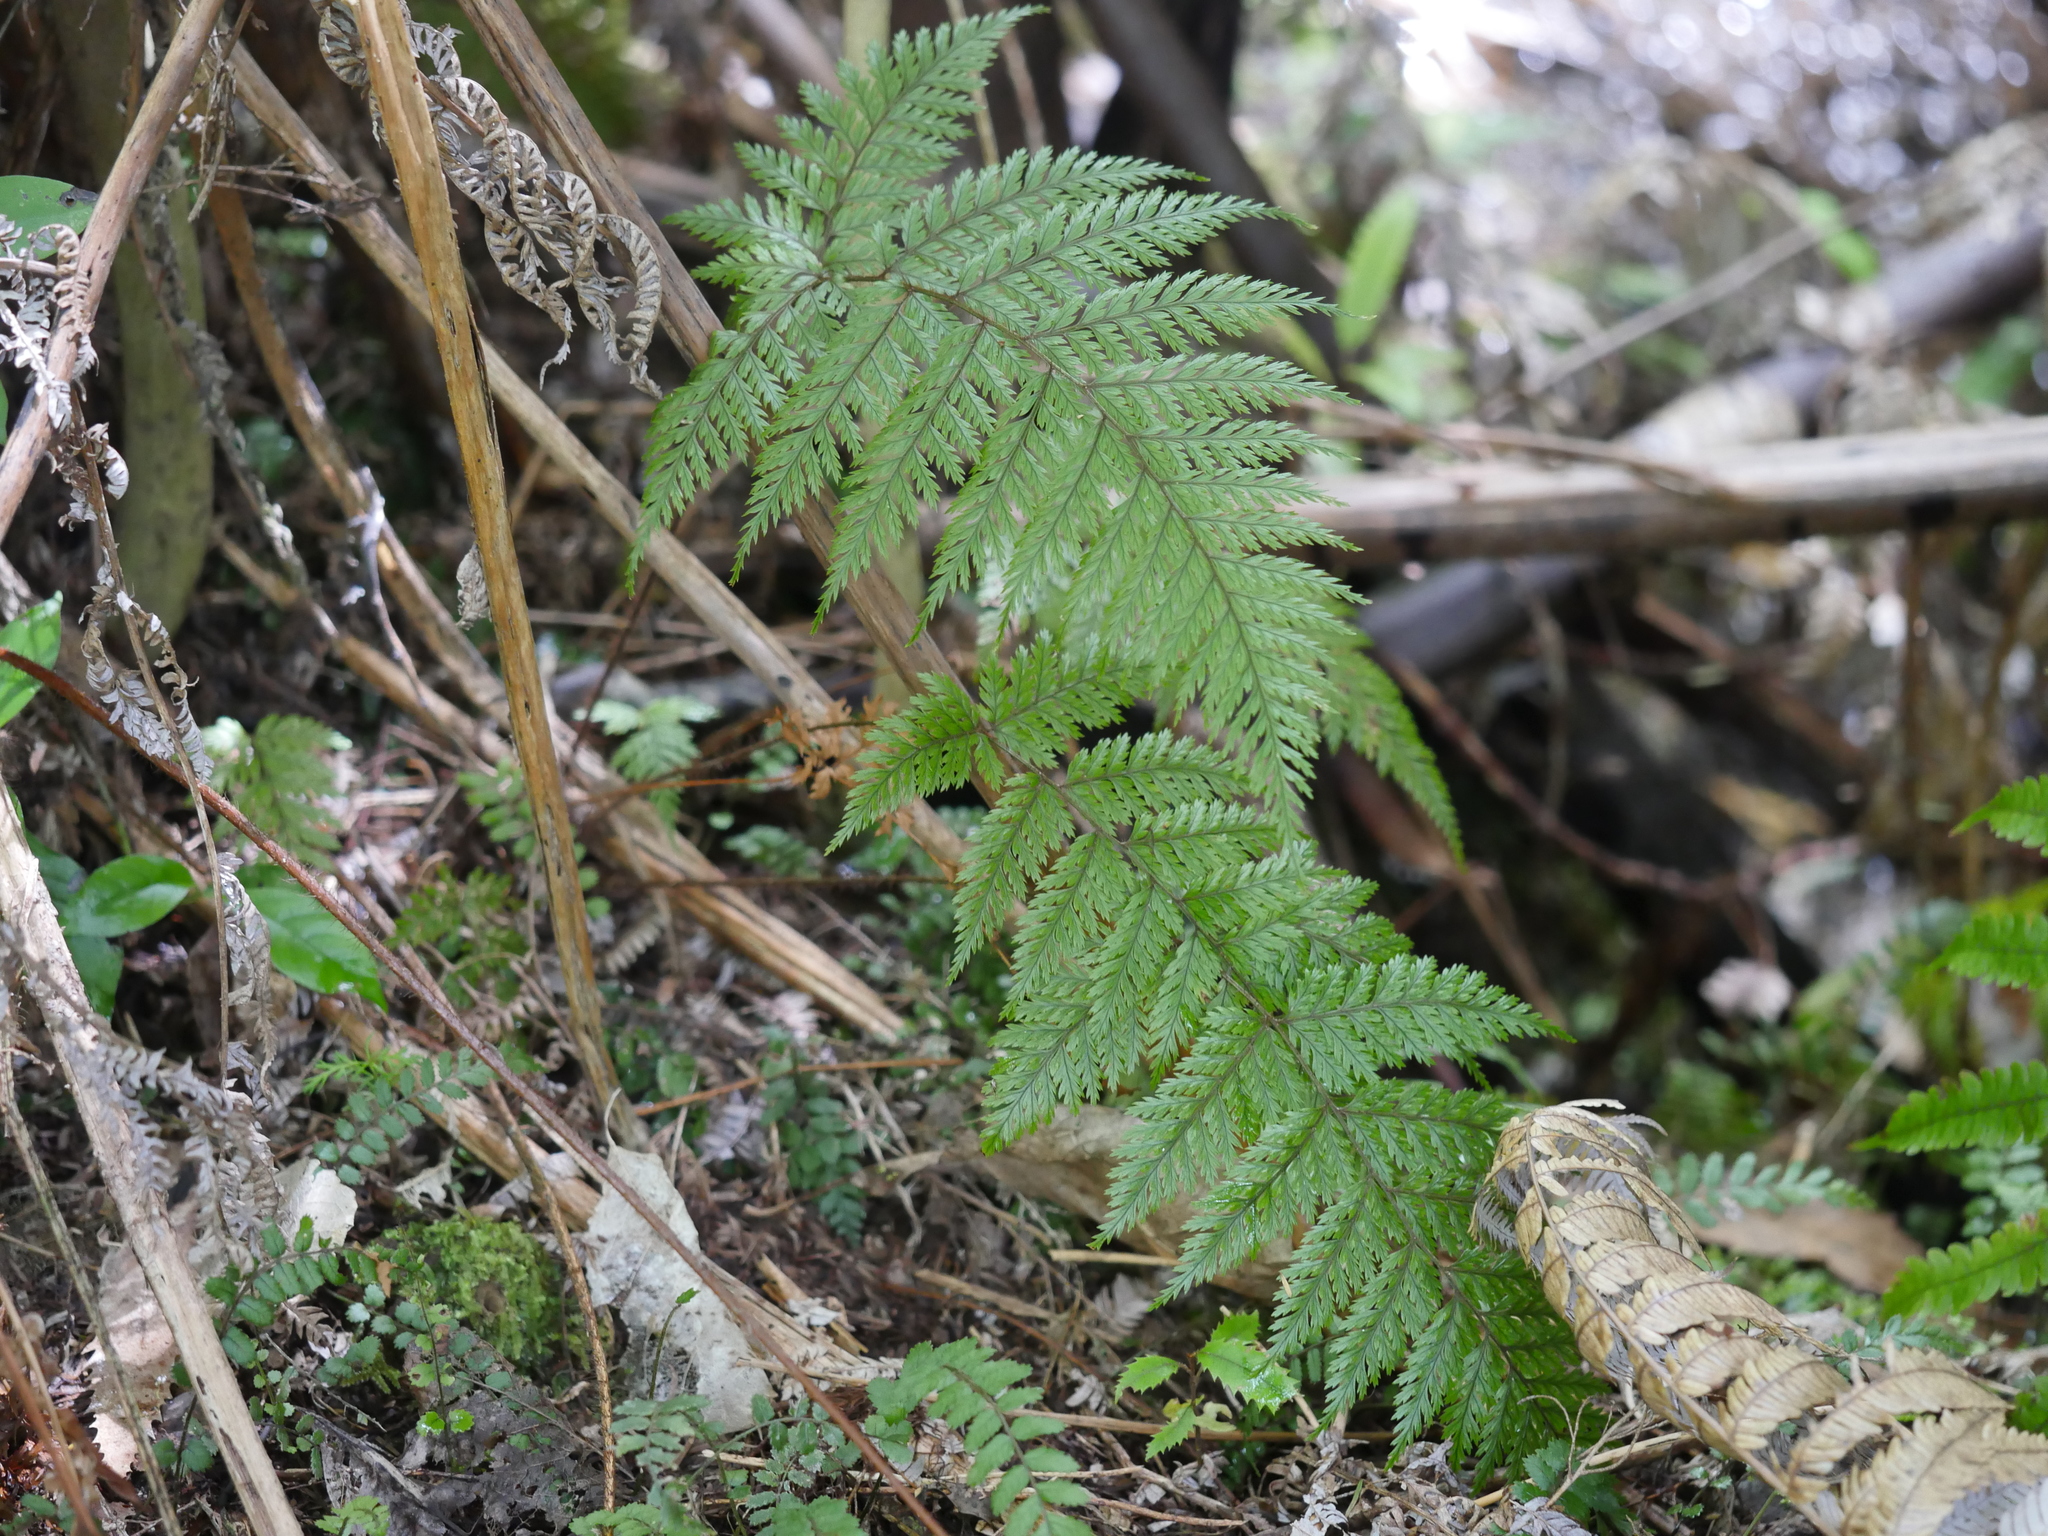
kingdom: Plantae
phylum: Tracheophyta
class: Polypodiopsida
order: Polypodiales
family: Dryopteridaceae
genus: Lastreopsis
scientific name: Lastreopsis hispida
